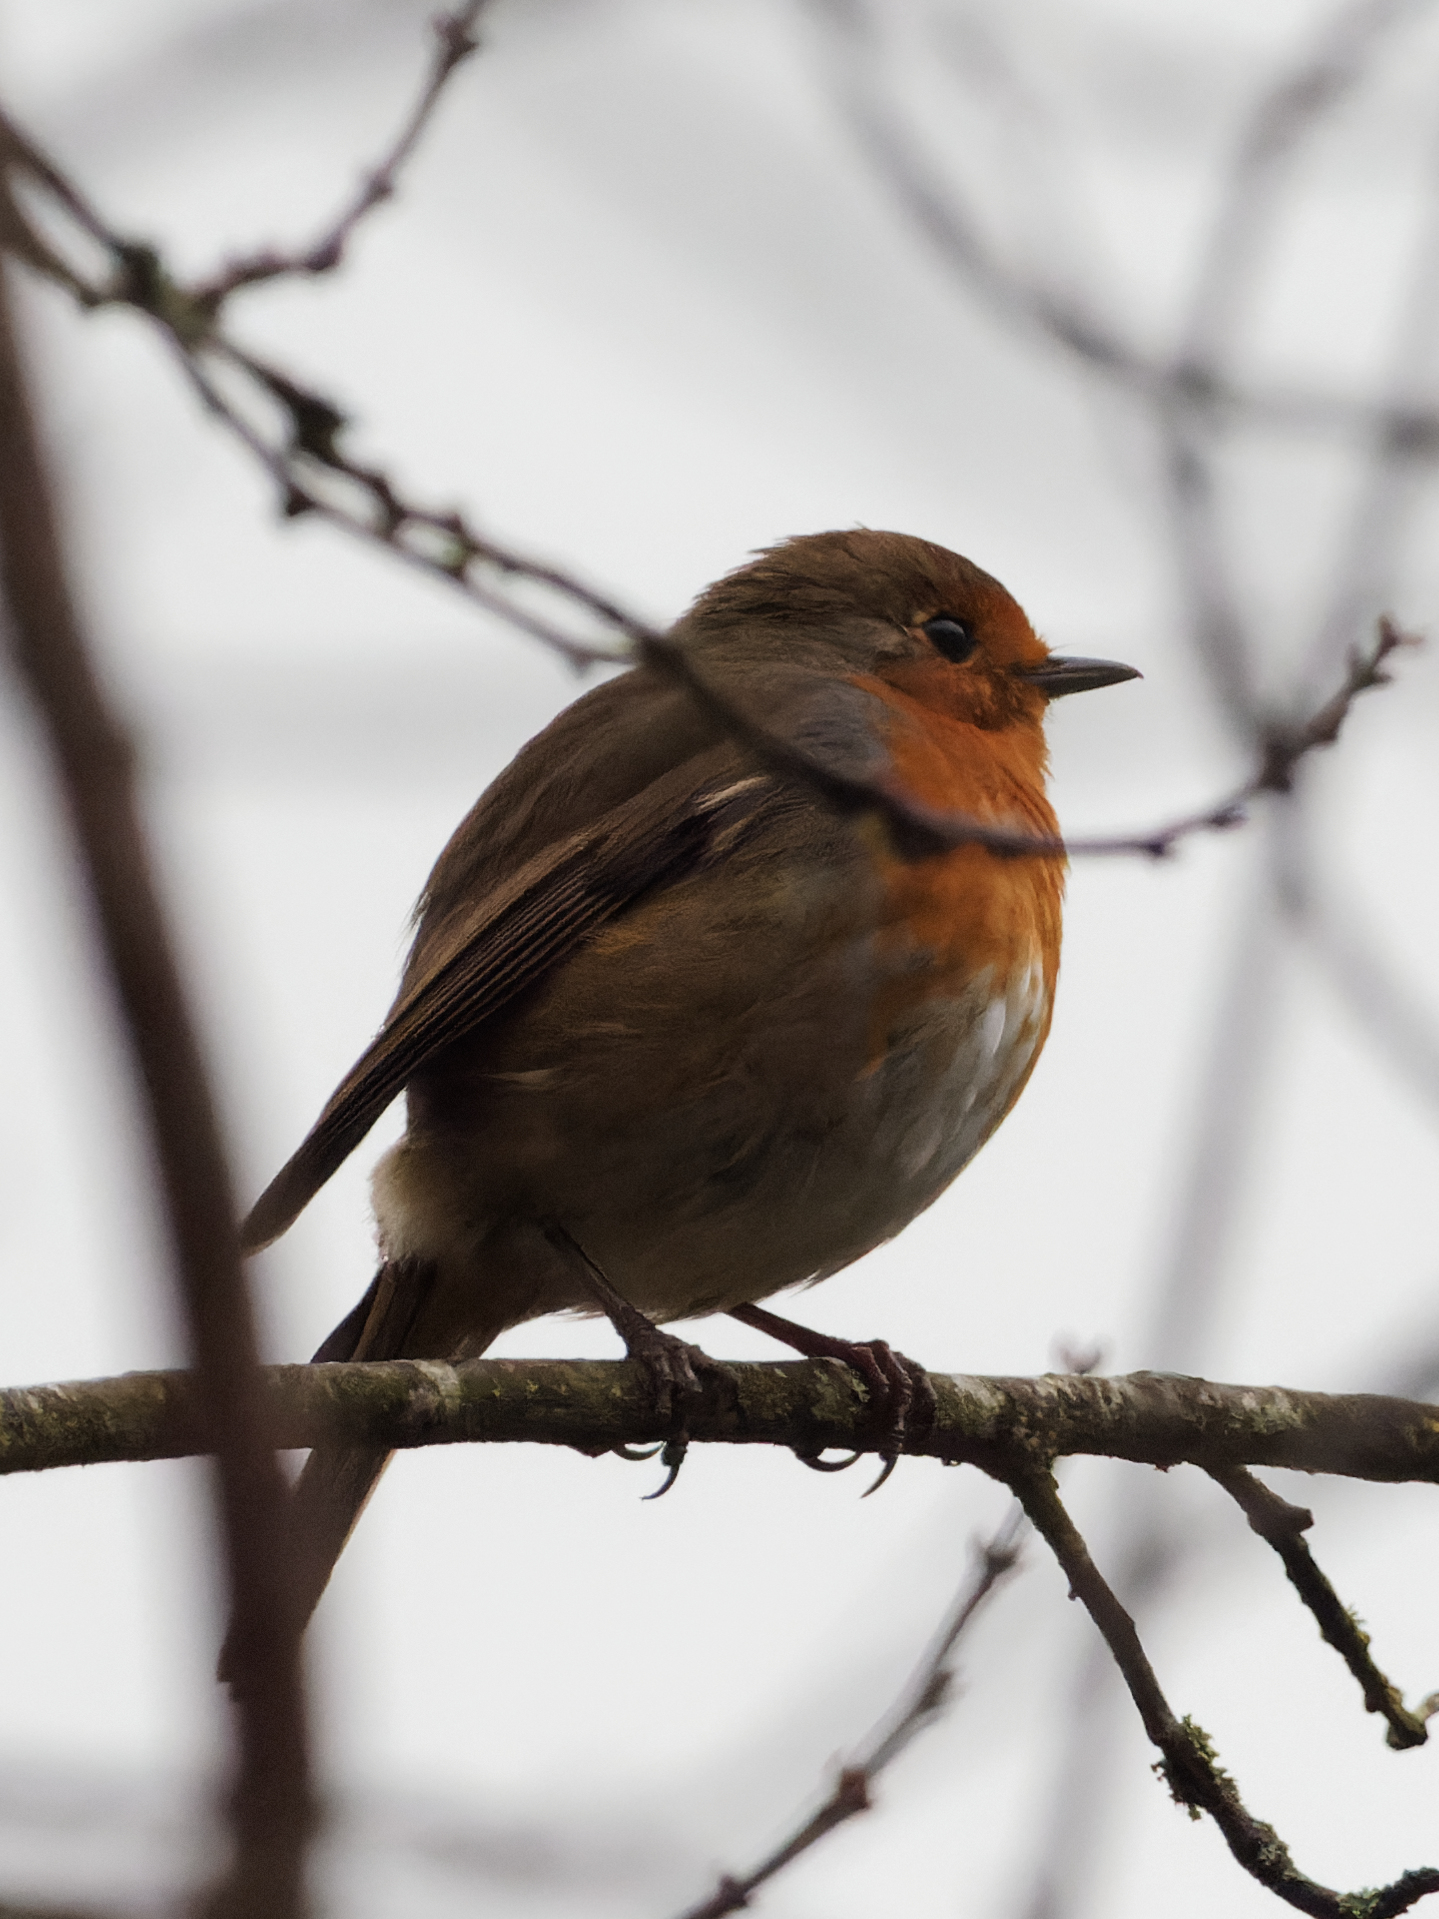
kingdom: Animalia
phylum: Chordata
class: Aves
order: Passeriformes
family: Muscicapidae
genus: Erithacus
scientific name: Erithacus rubecula
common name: European robin
